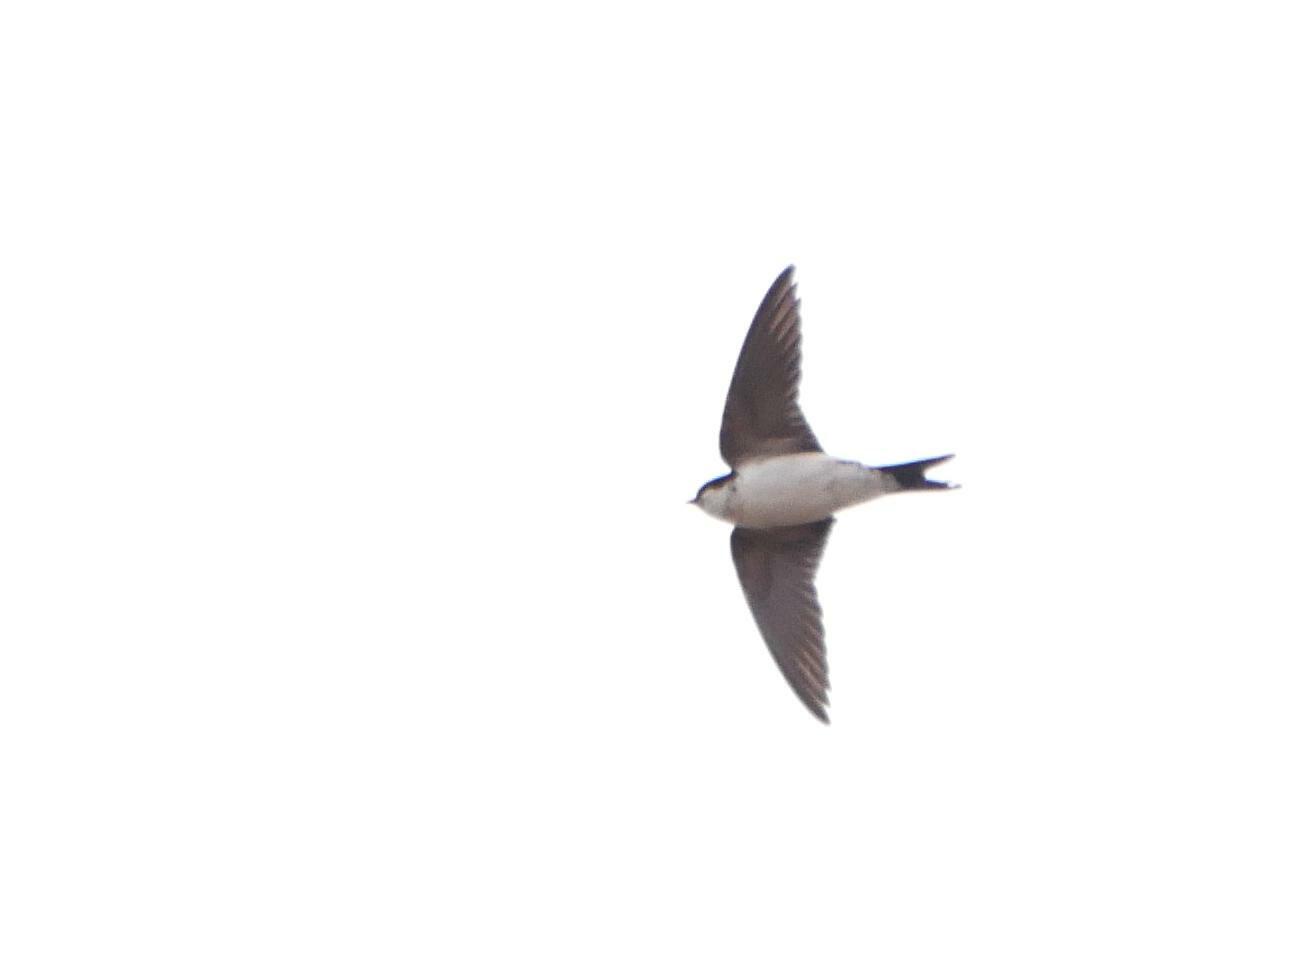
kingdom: Animalia
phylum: Chordata
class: Aves
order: Passeriformes
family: Hirundinidae
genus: Delichon
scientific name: Delichon urbicum
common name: Common house martin
